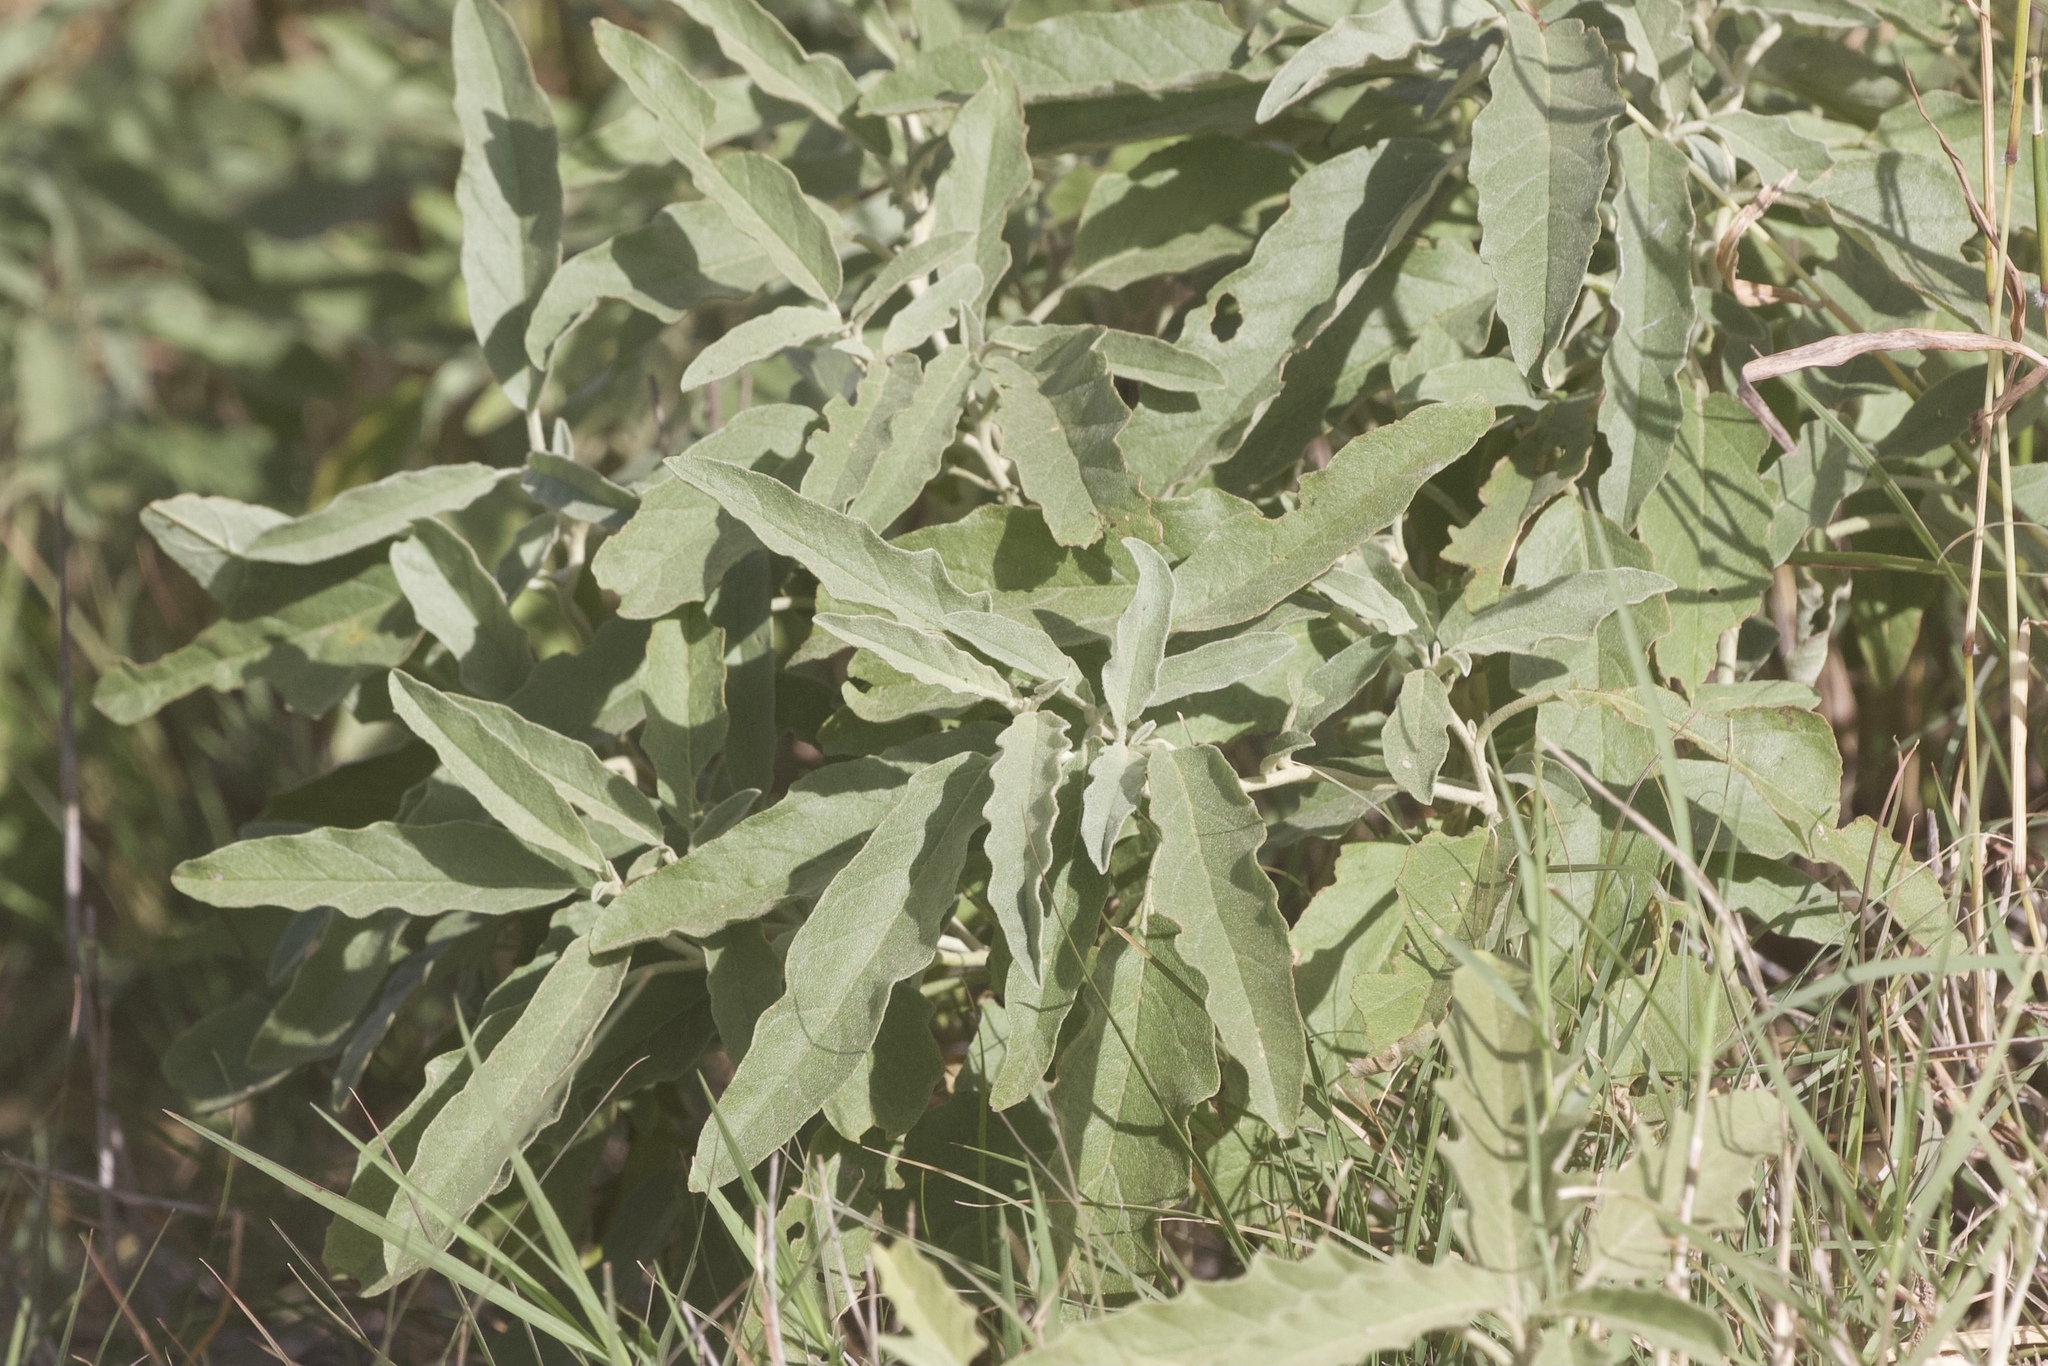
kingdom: Plantae
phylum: Tracheophyta
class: Magnoliopsida
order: Solanales
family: Solanaceae
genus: Solanum
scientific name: Solanum elaeagnifolium
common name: Silverleaf nightshade
